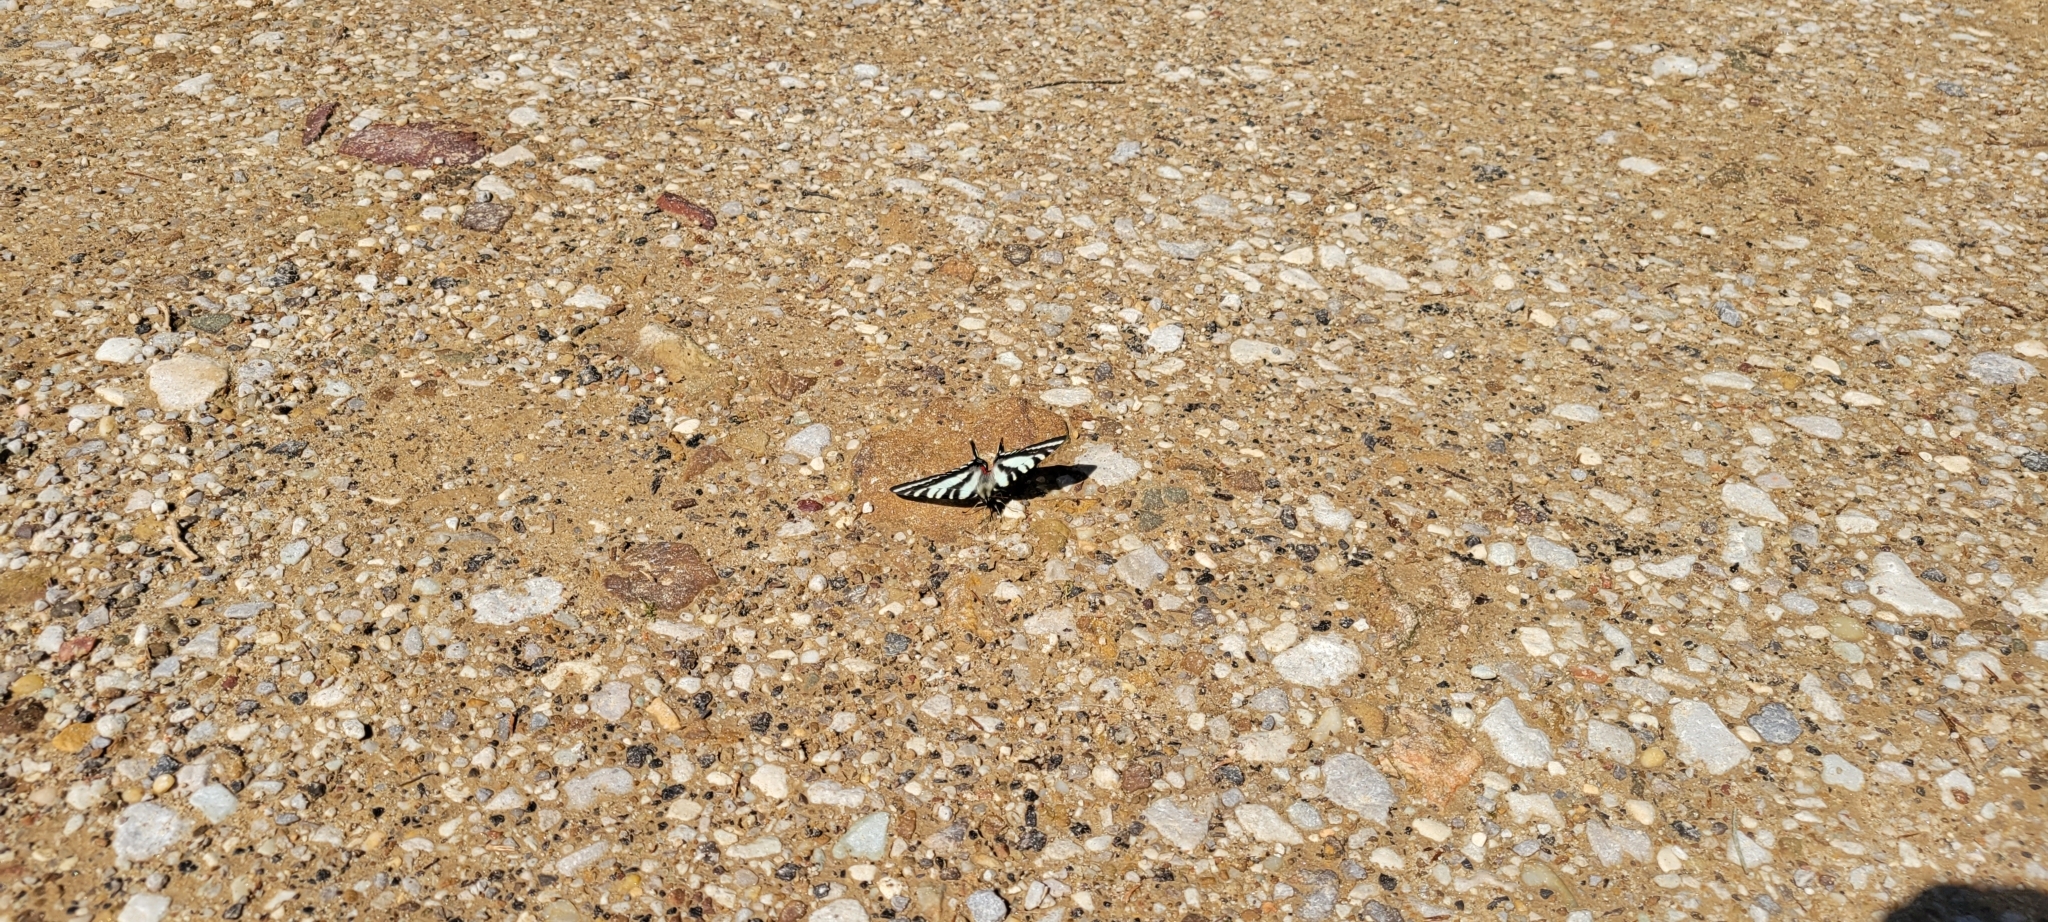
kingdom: Animalia
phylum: Arthropoda
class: Insecta
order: Lepidoptera
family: Papilionidae
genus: Protographium
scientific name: Protographium marcellus
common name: Zebra swallowtail
